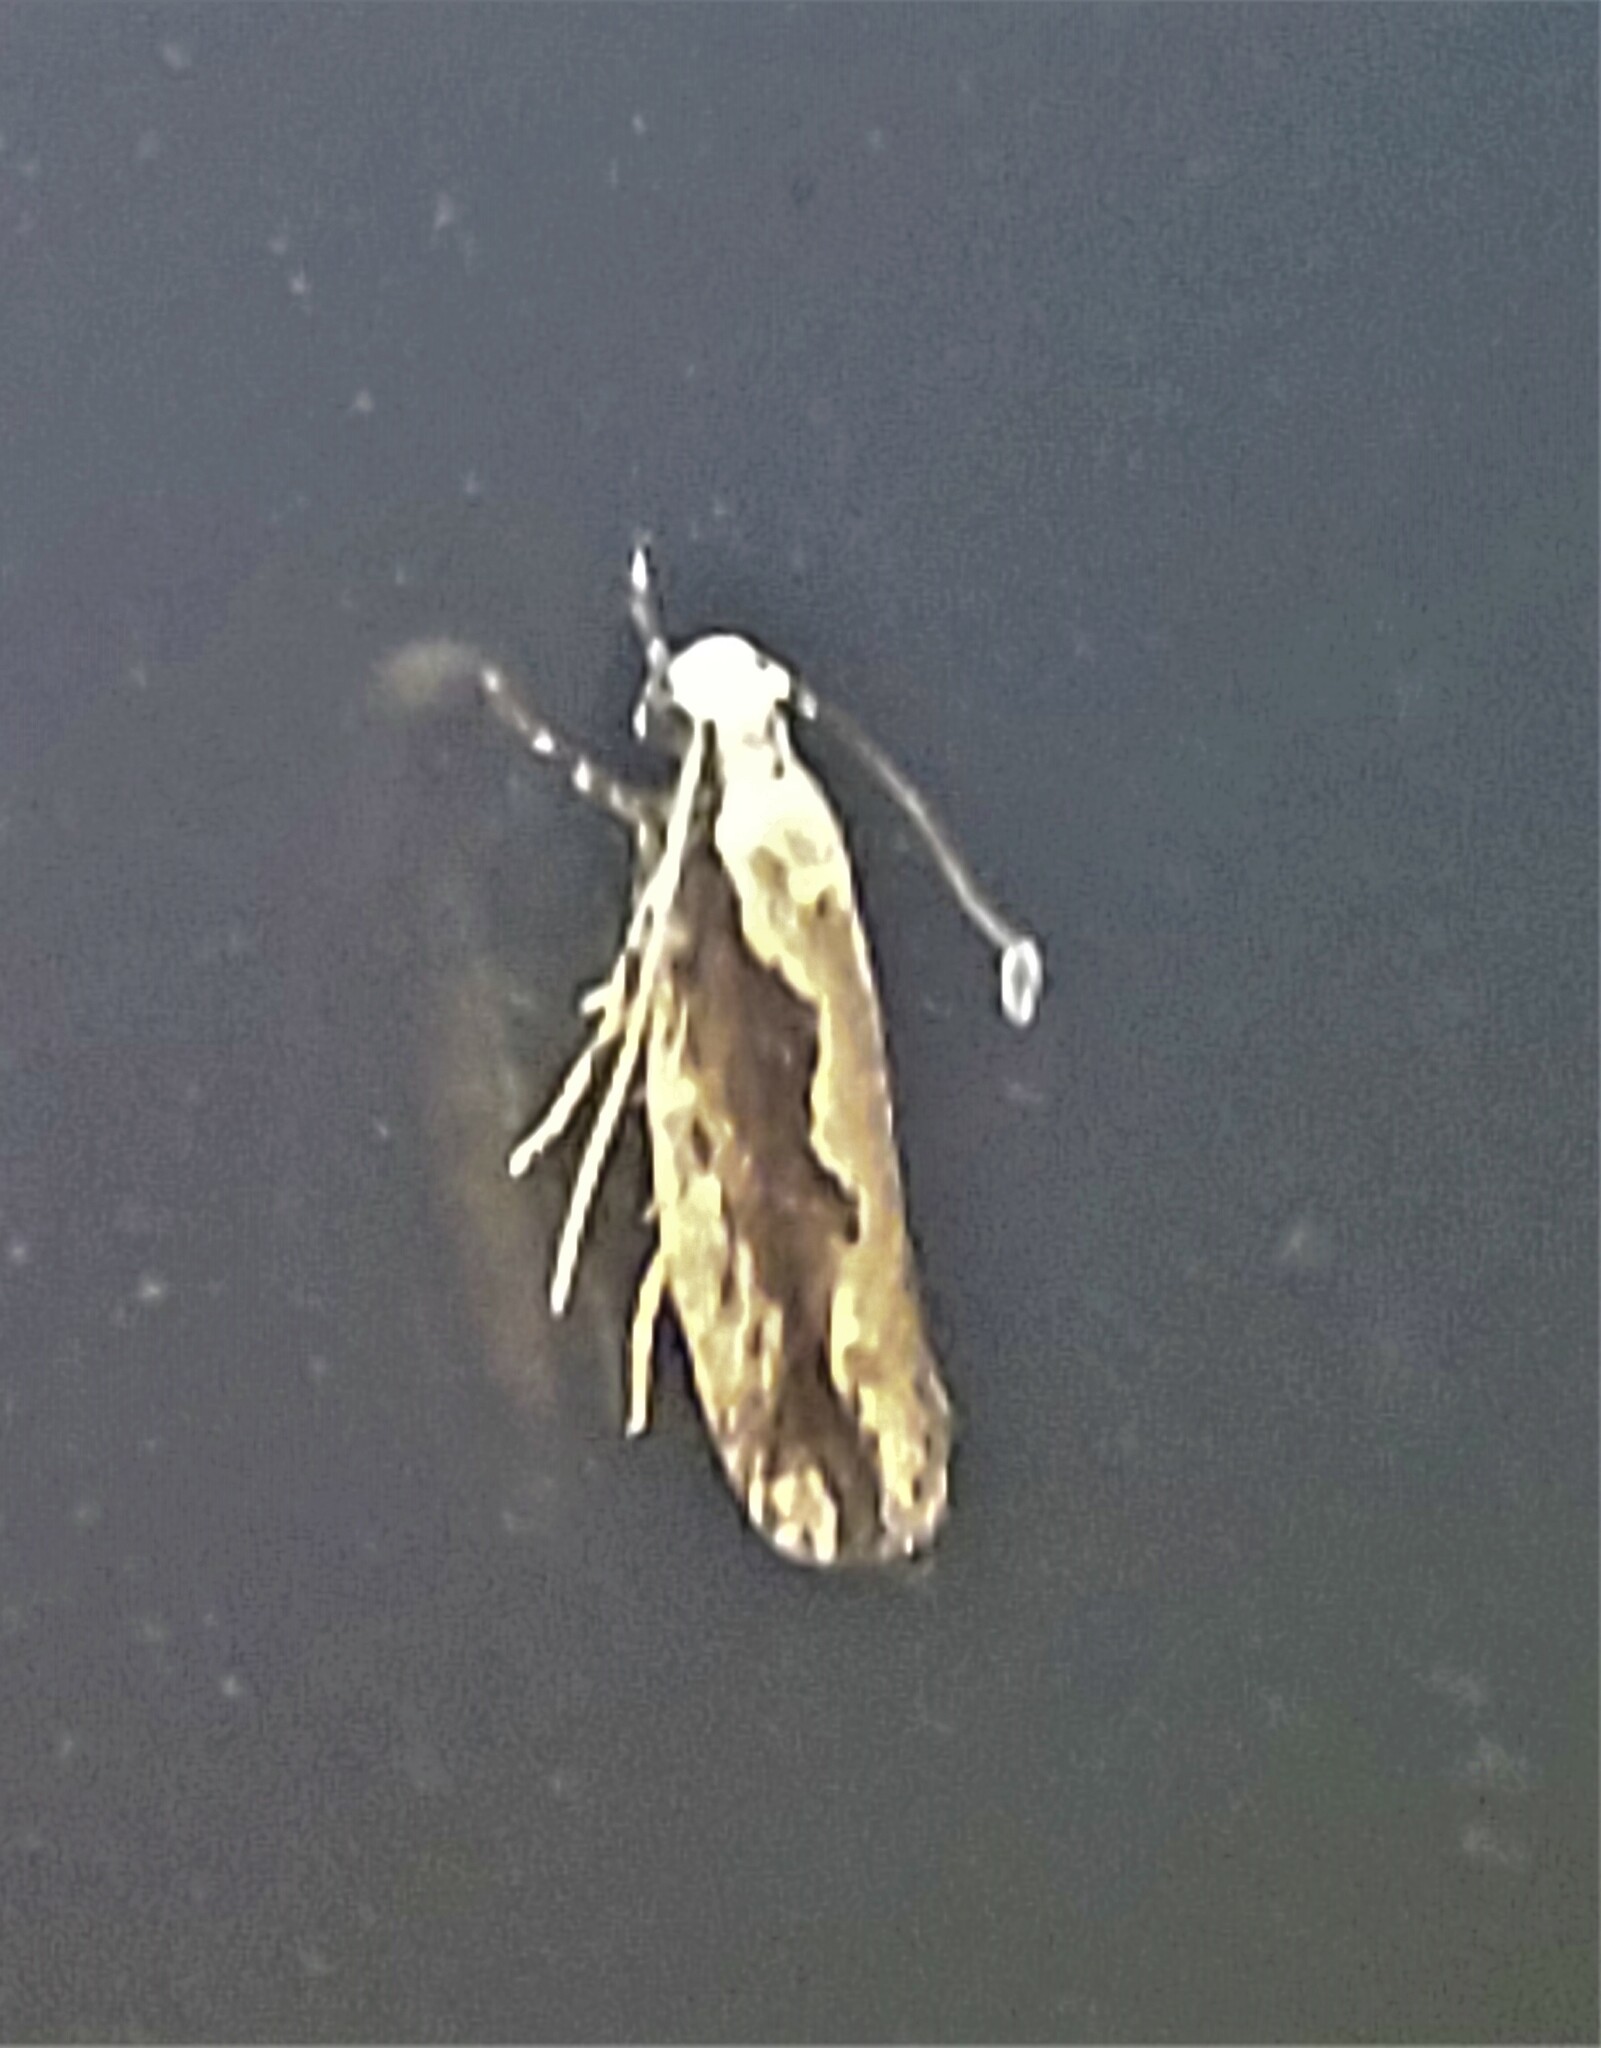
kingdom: Animalia
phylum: Arthropoda
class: Insecta
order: Lepidoptera
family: Ethmiidae
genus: Ethmia
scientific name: Ethmia semiombra
